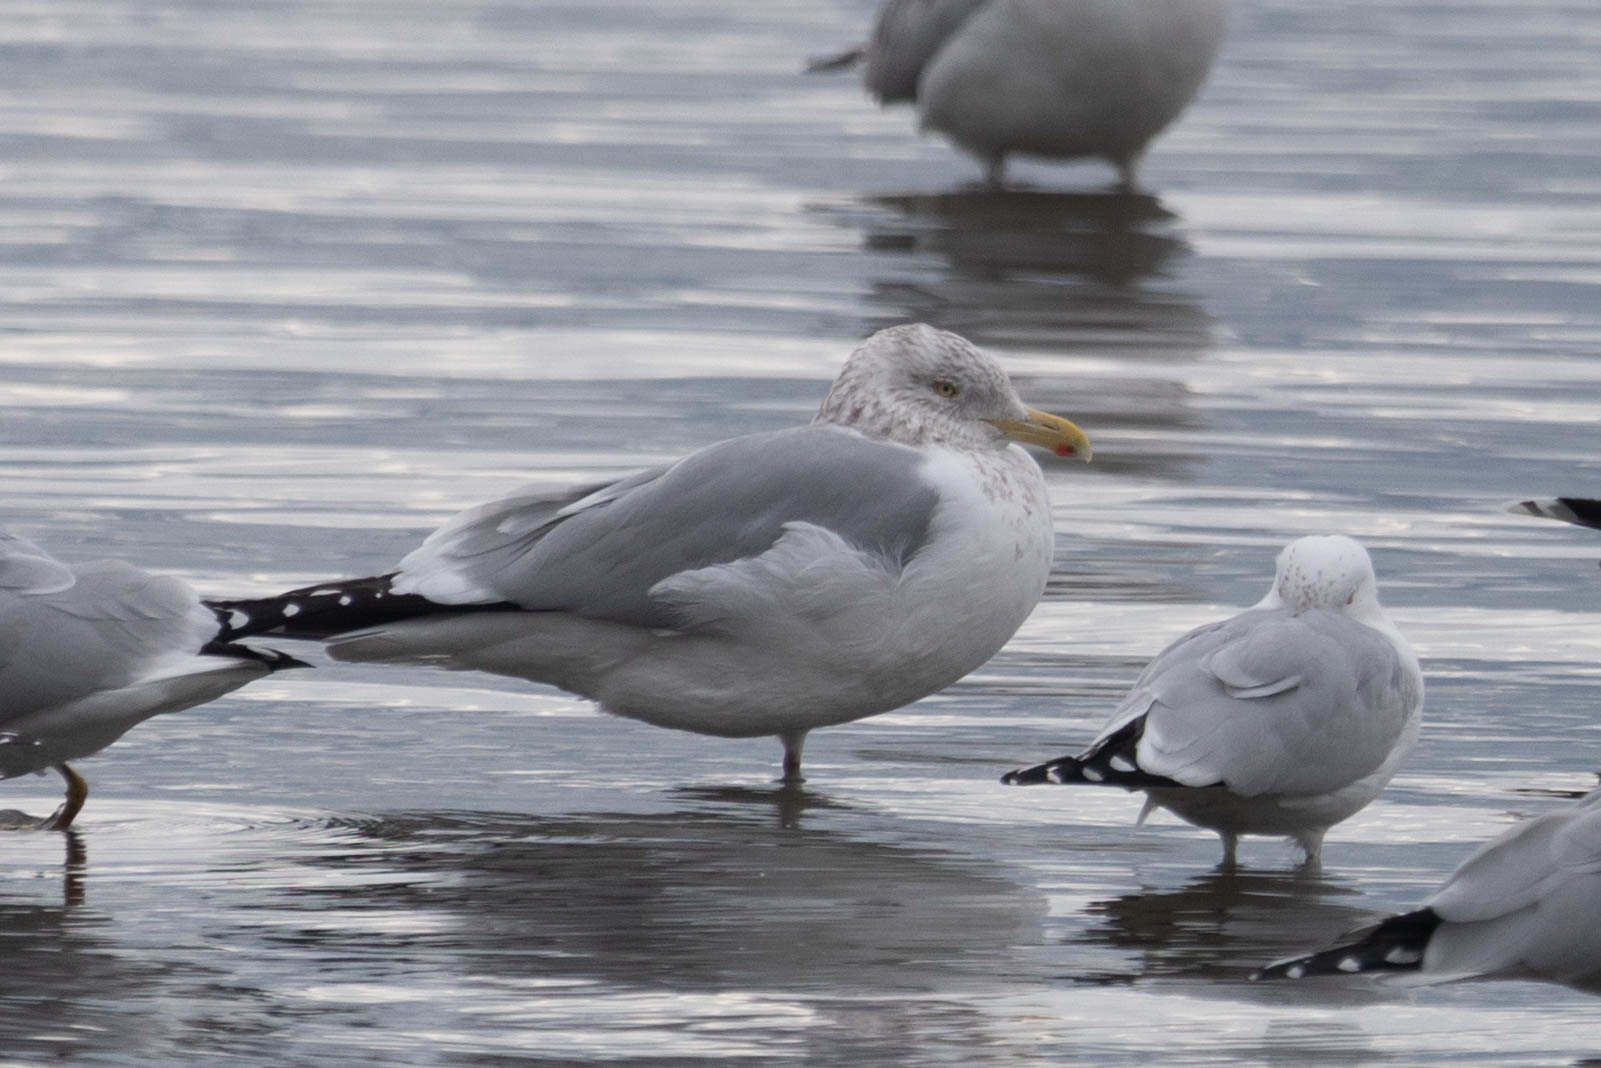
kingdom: Animalia
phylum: Chordata
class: Aves
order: Charadriiformes
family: Laridae
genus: Larus
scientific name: Larus argentatus
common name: Herring gull
